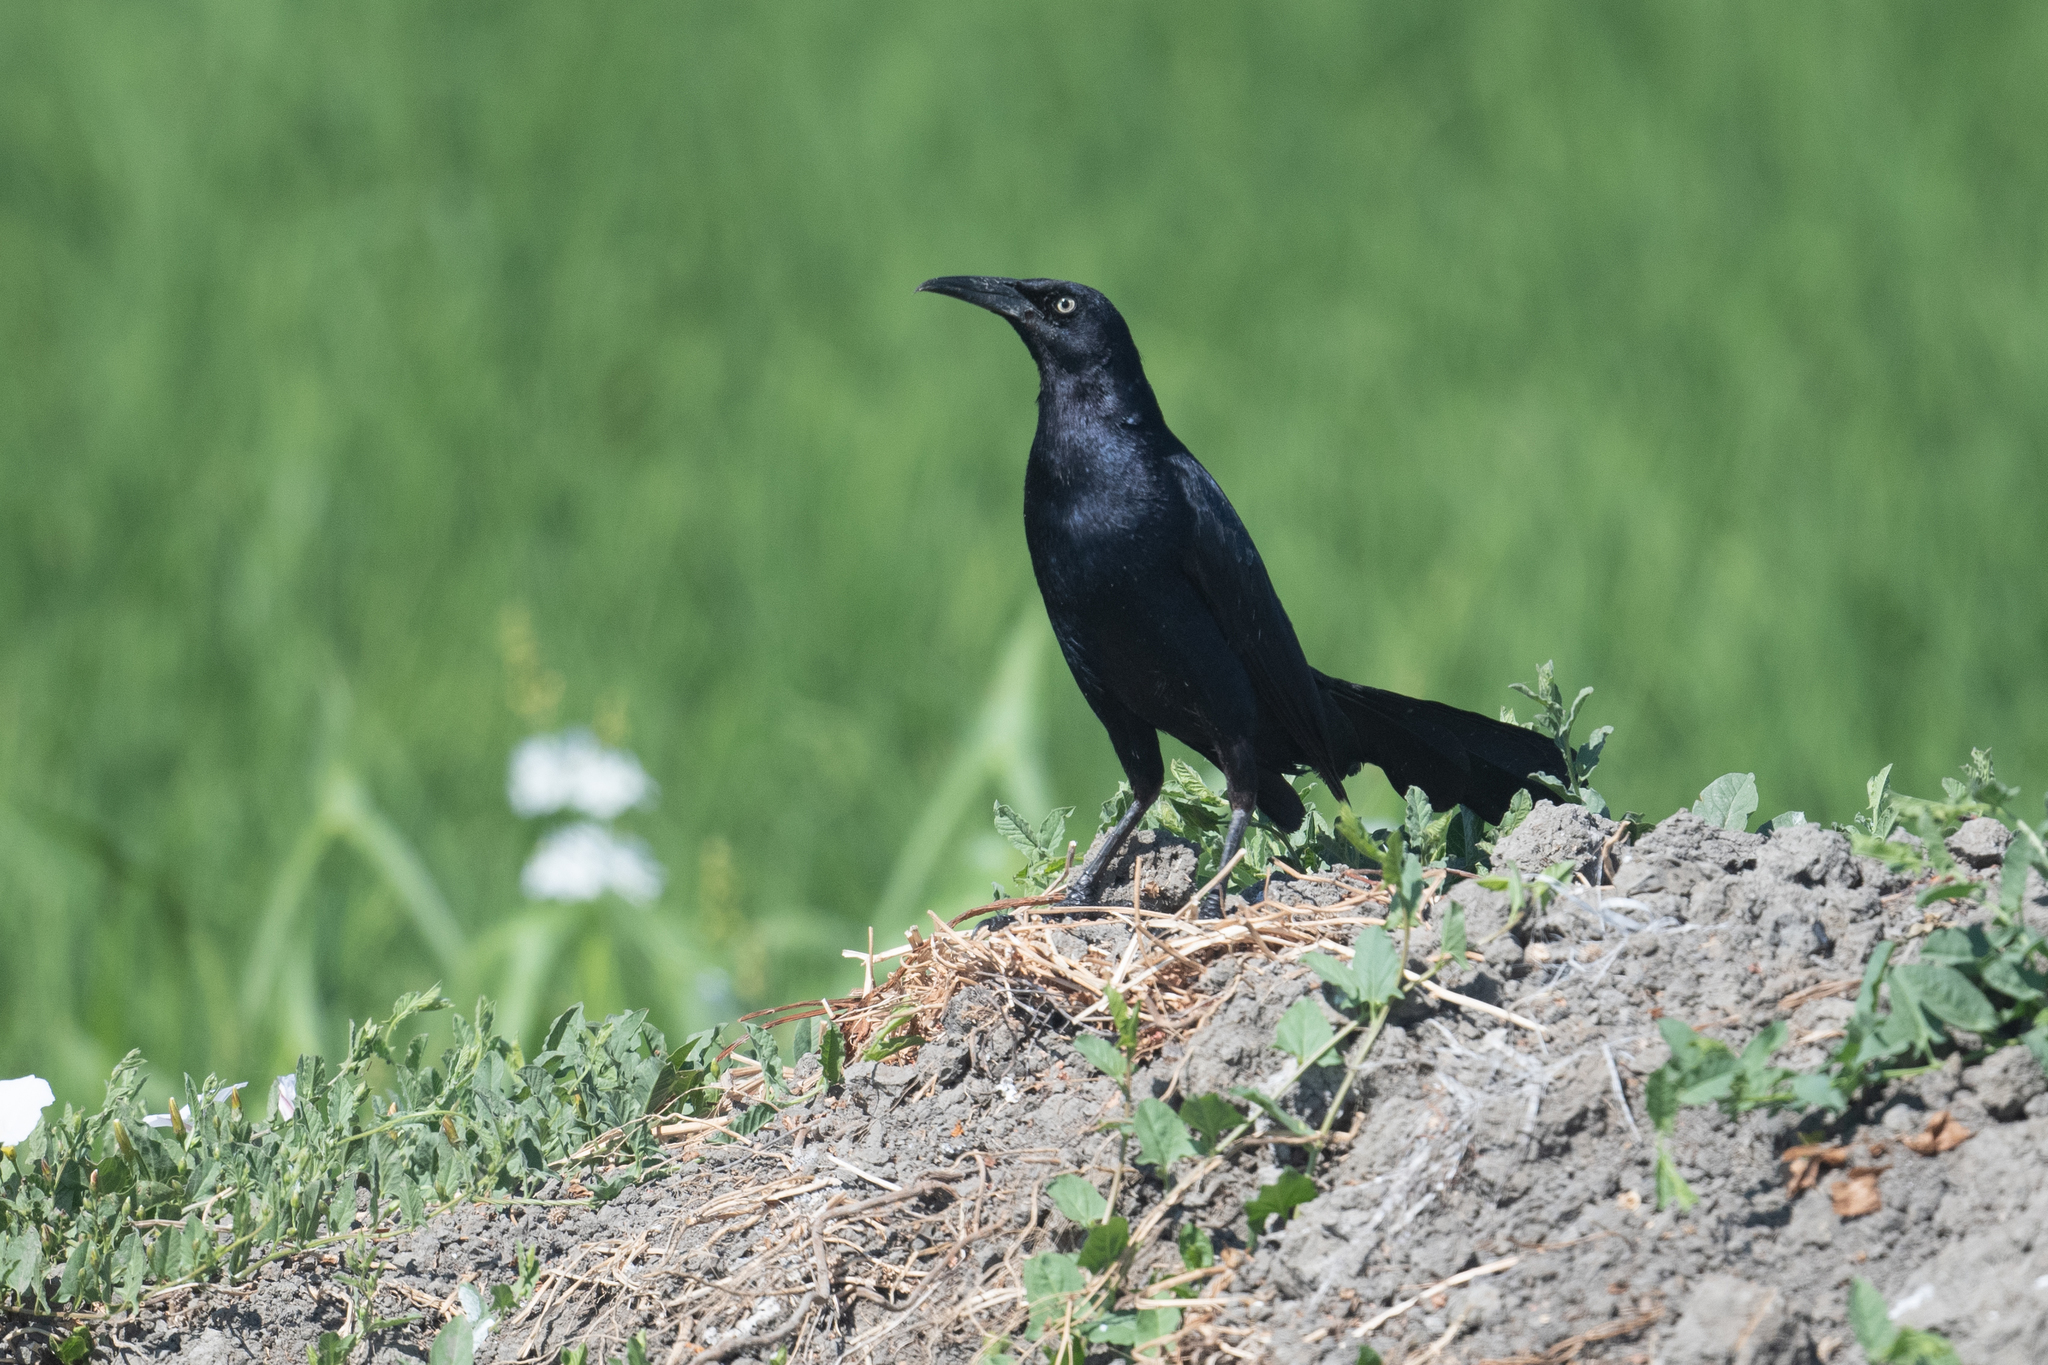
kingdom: Animalia
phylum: Chordata
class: Aves
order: Passeriformes
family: Icteridae
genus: Quiscalus
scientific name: Quiscalus mexicanus
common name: Great-tailed grackle
